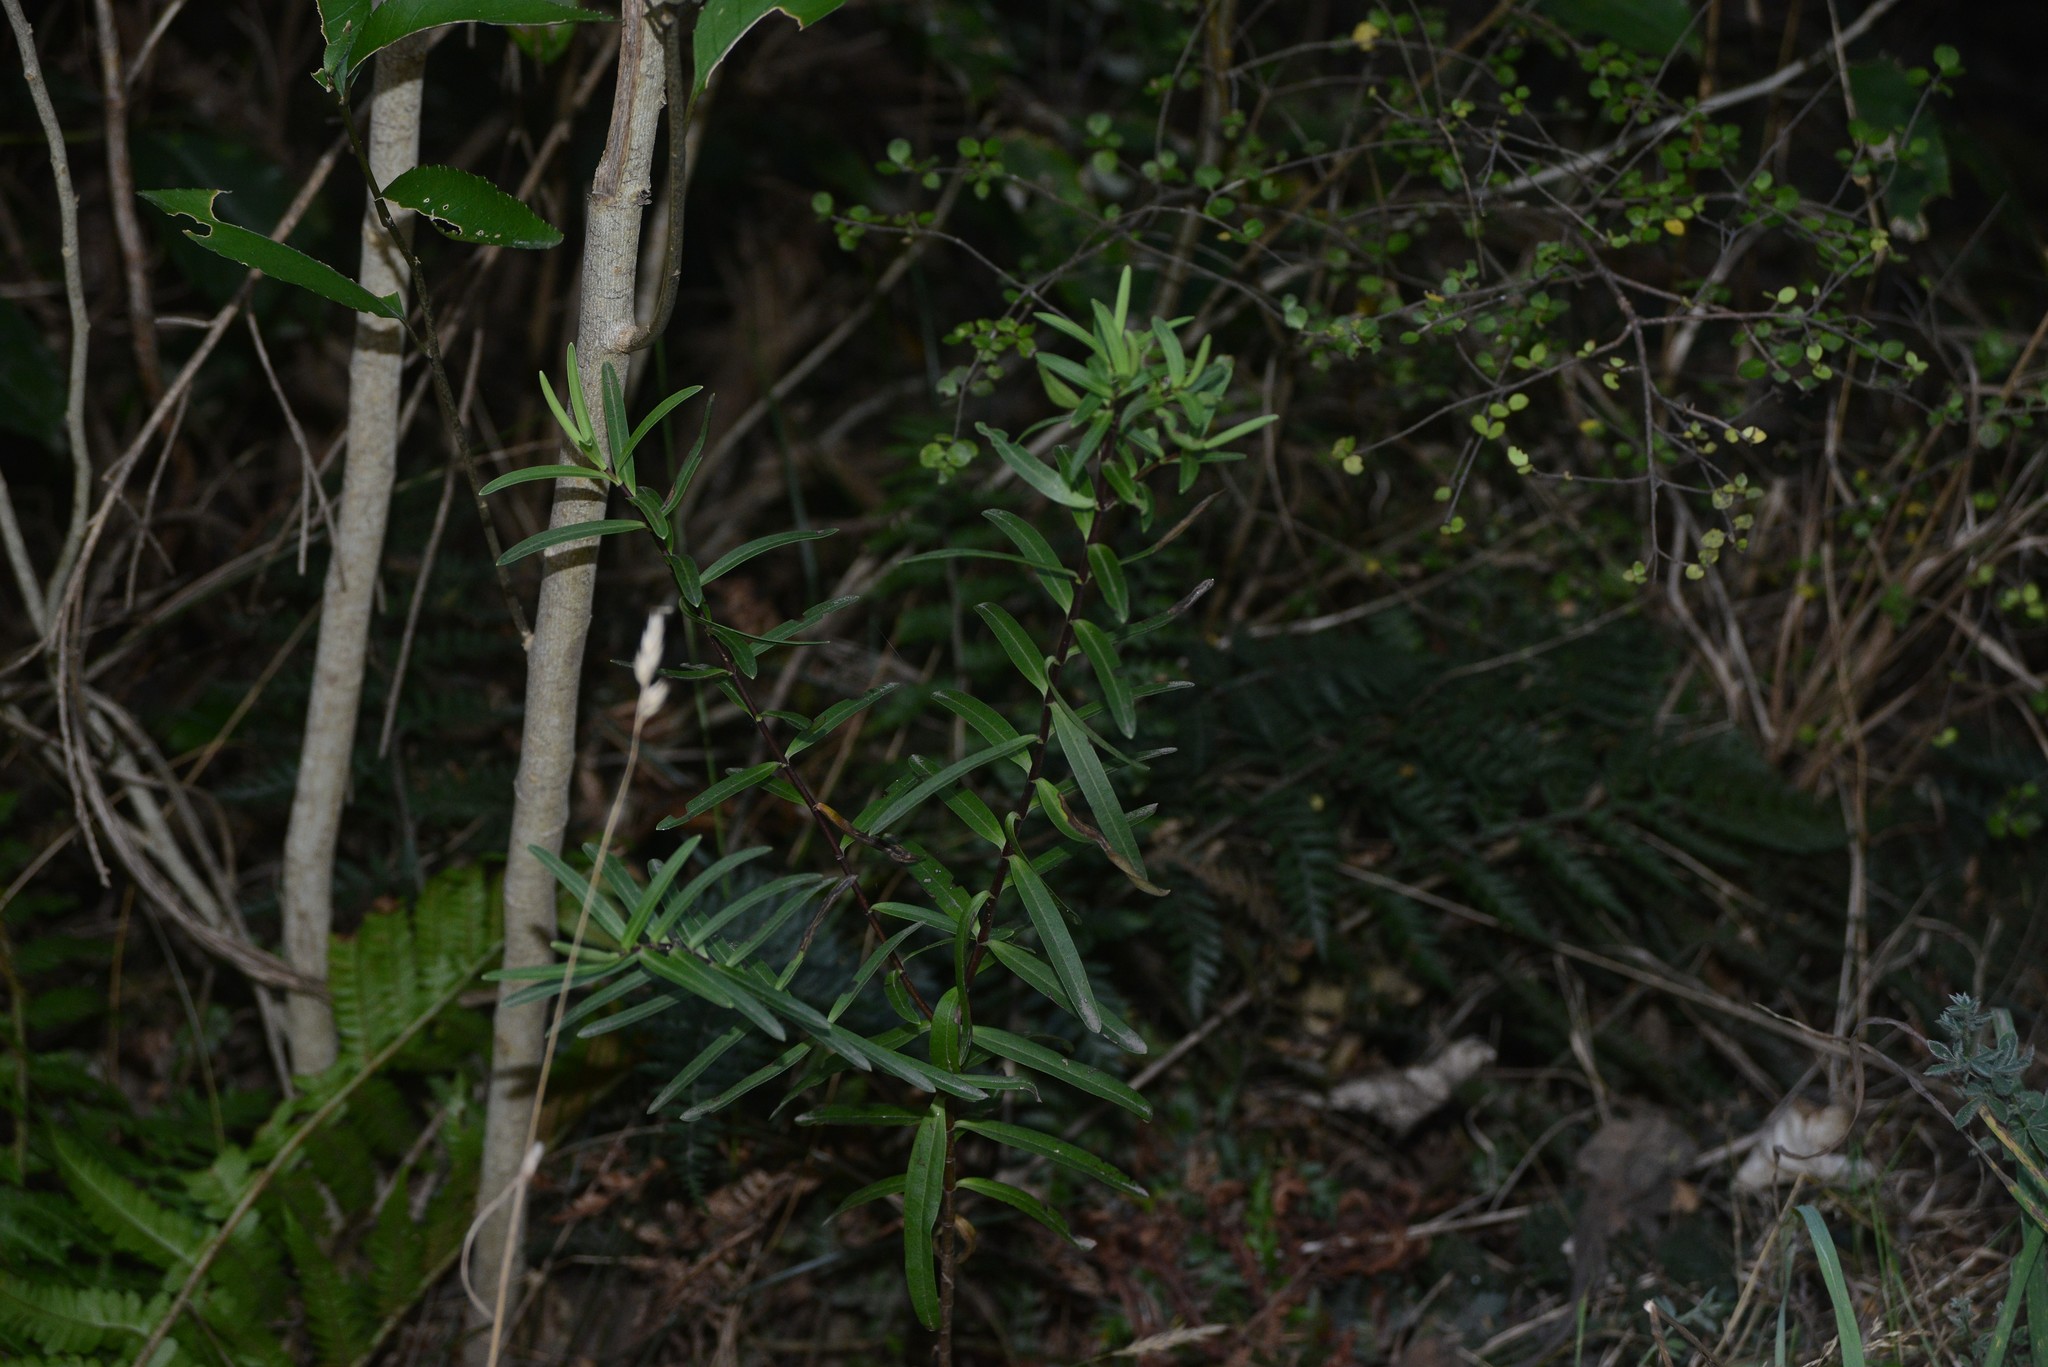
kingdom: Plantae
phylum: Tracheophyta
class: Magnoliopsida
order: Lamiales
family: Plantaginaceae
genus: Veronica
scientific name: Veronica strictissima
